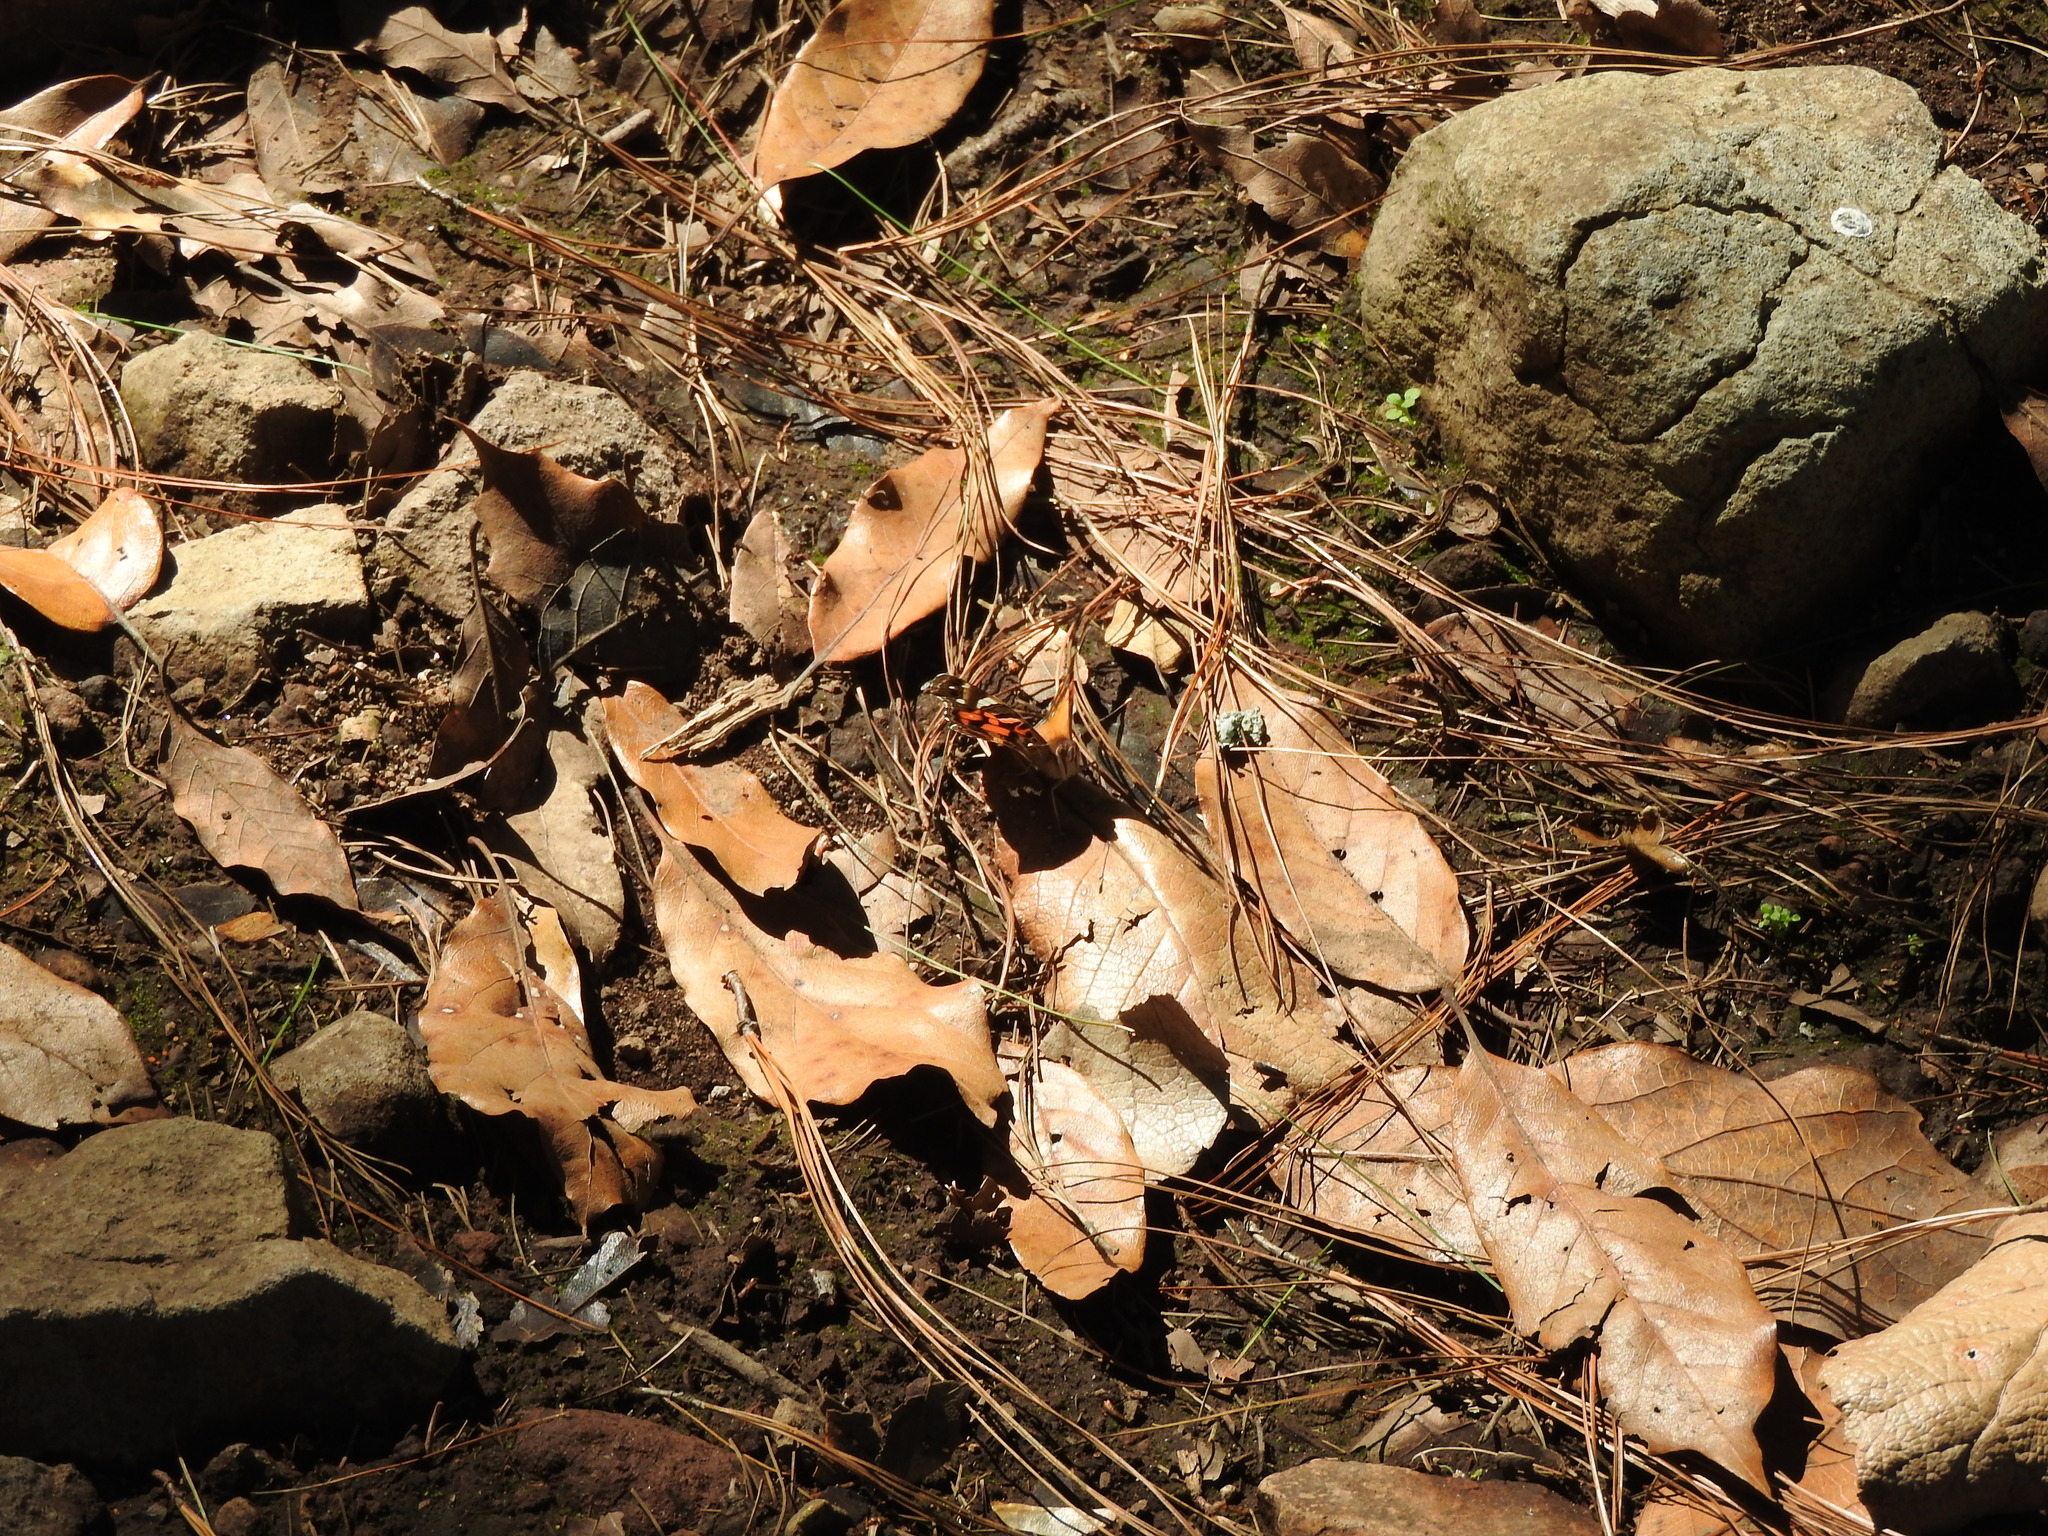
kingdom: Animalia
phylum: Arthropoda
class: Insecta
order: Lepidoptera
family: Nymphalidae
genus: Vanessa
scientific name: Vanessa virginiensis
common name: American lady
